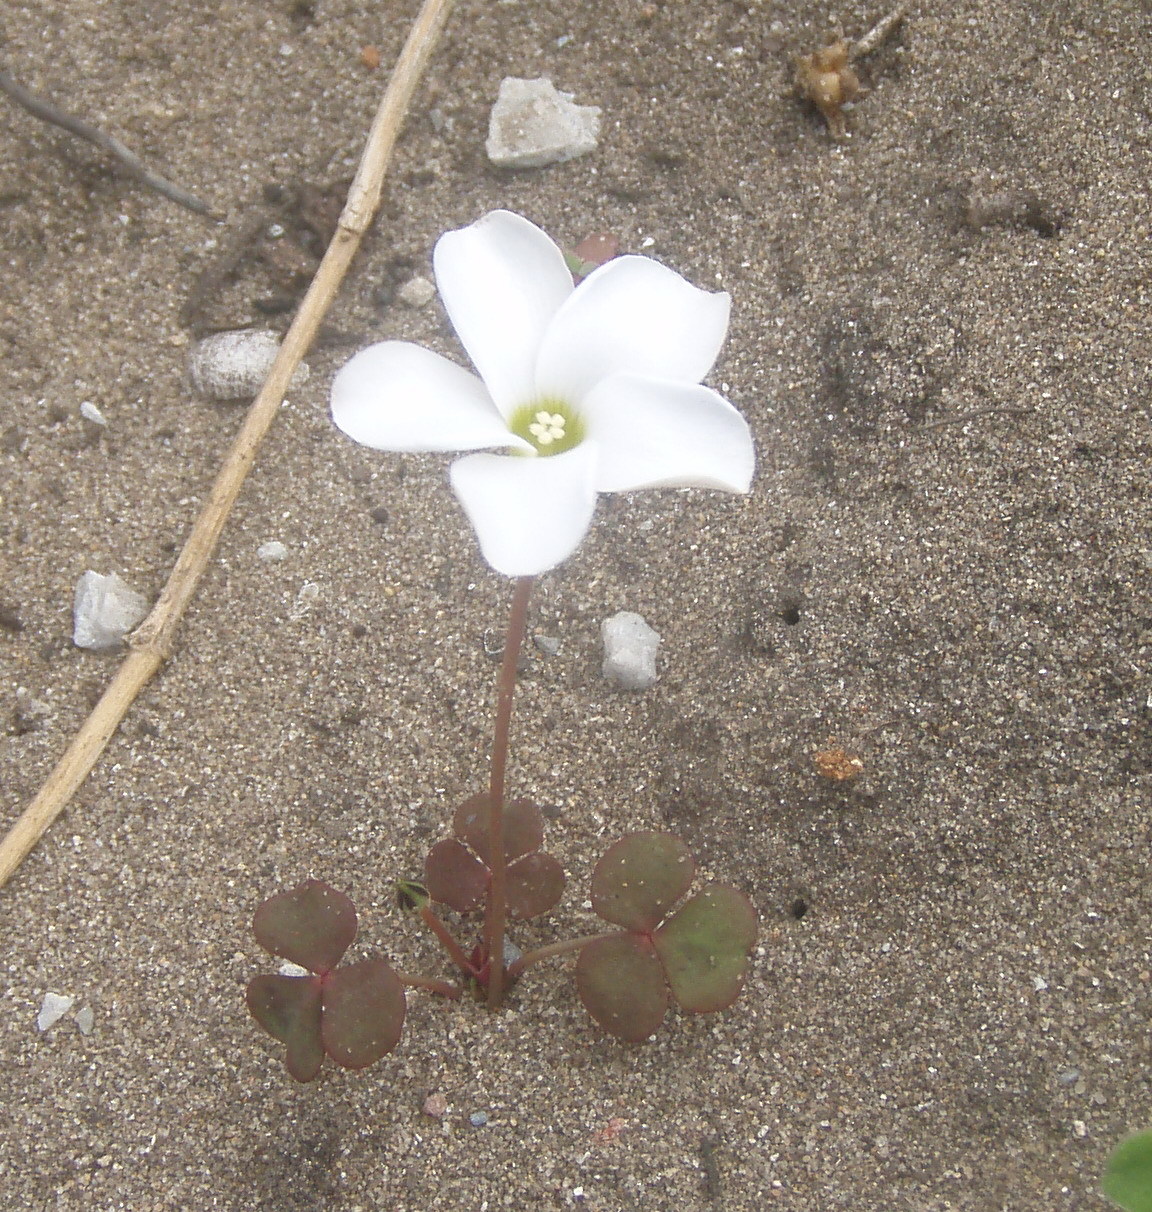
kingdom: Plantae
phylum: Tracheophyta
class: Magnoliopsida
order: Oxalidales
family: Oxalidaceae
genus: Oxalis
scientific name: Oxalis depressa
